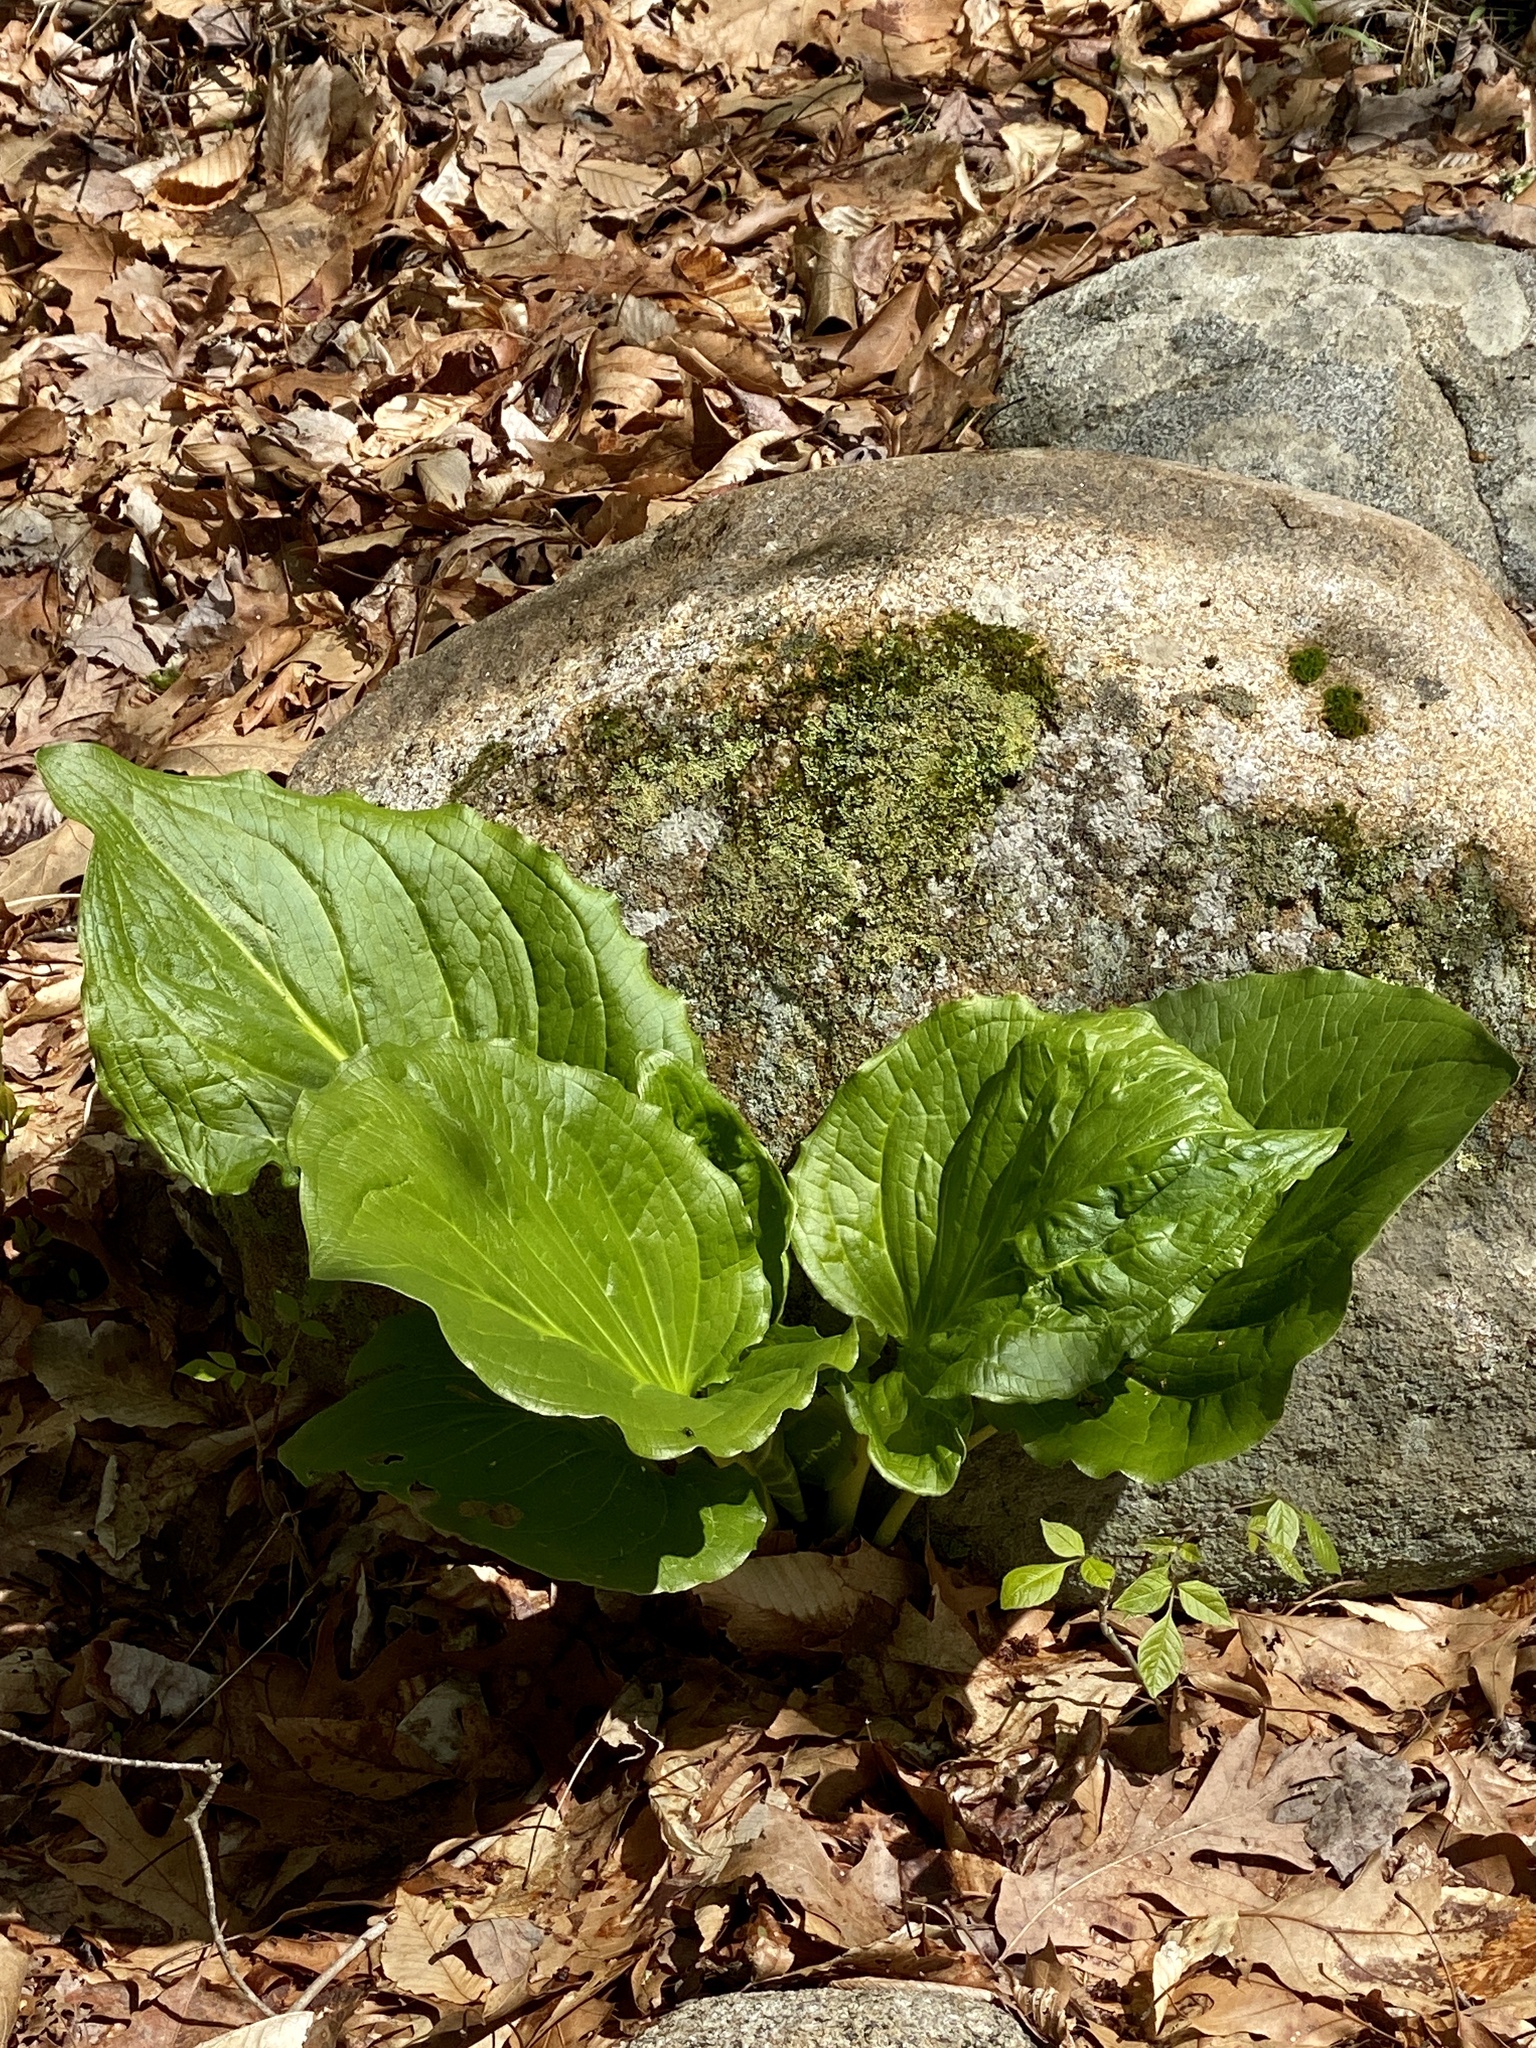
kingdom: Plantae
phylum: Tracheophyta
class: Liliopsida
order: Alismatales
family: Araceae
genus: Symplocarpus
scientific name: Symplocarpus foetidus
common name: Eastern skunk cabbage
